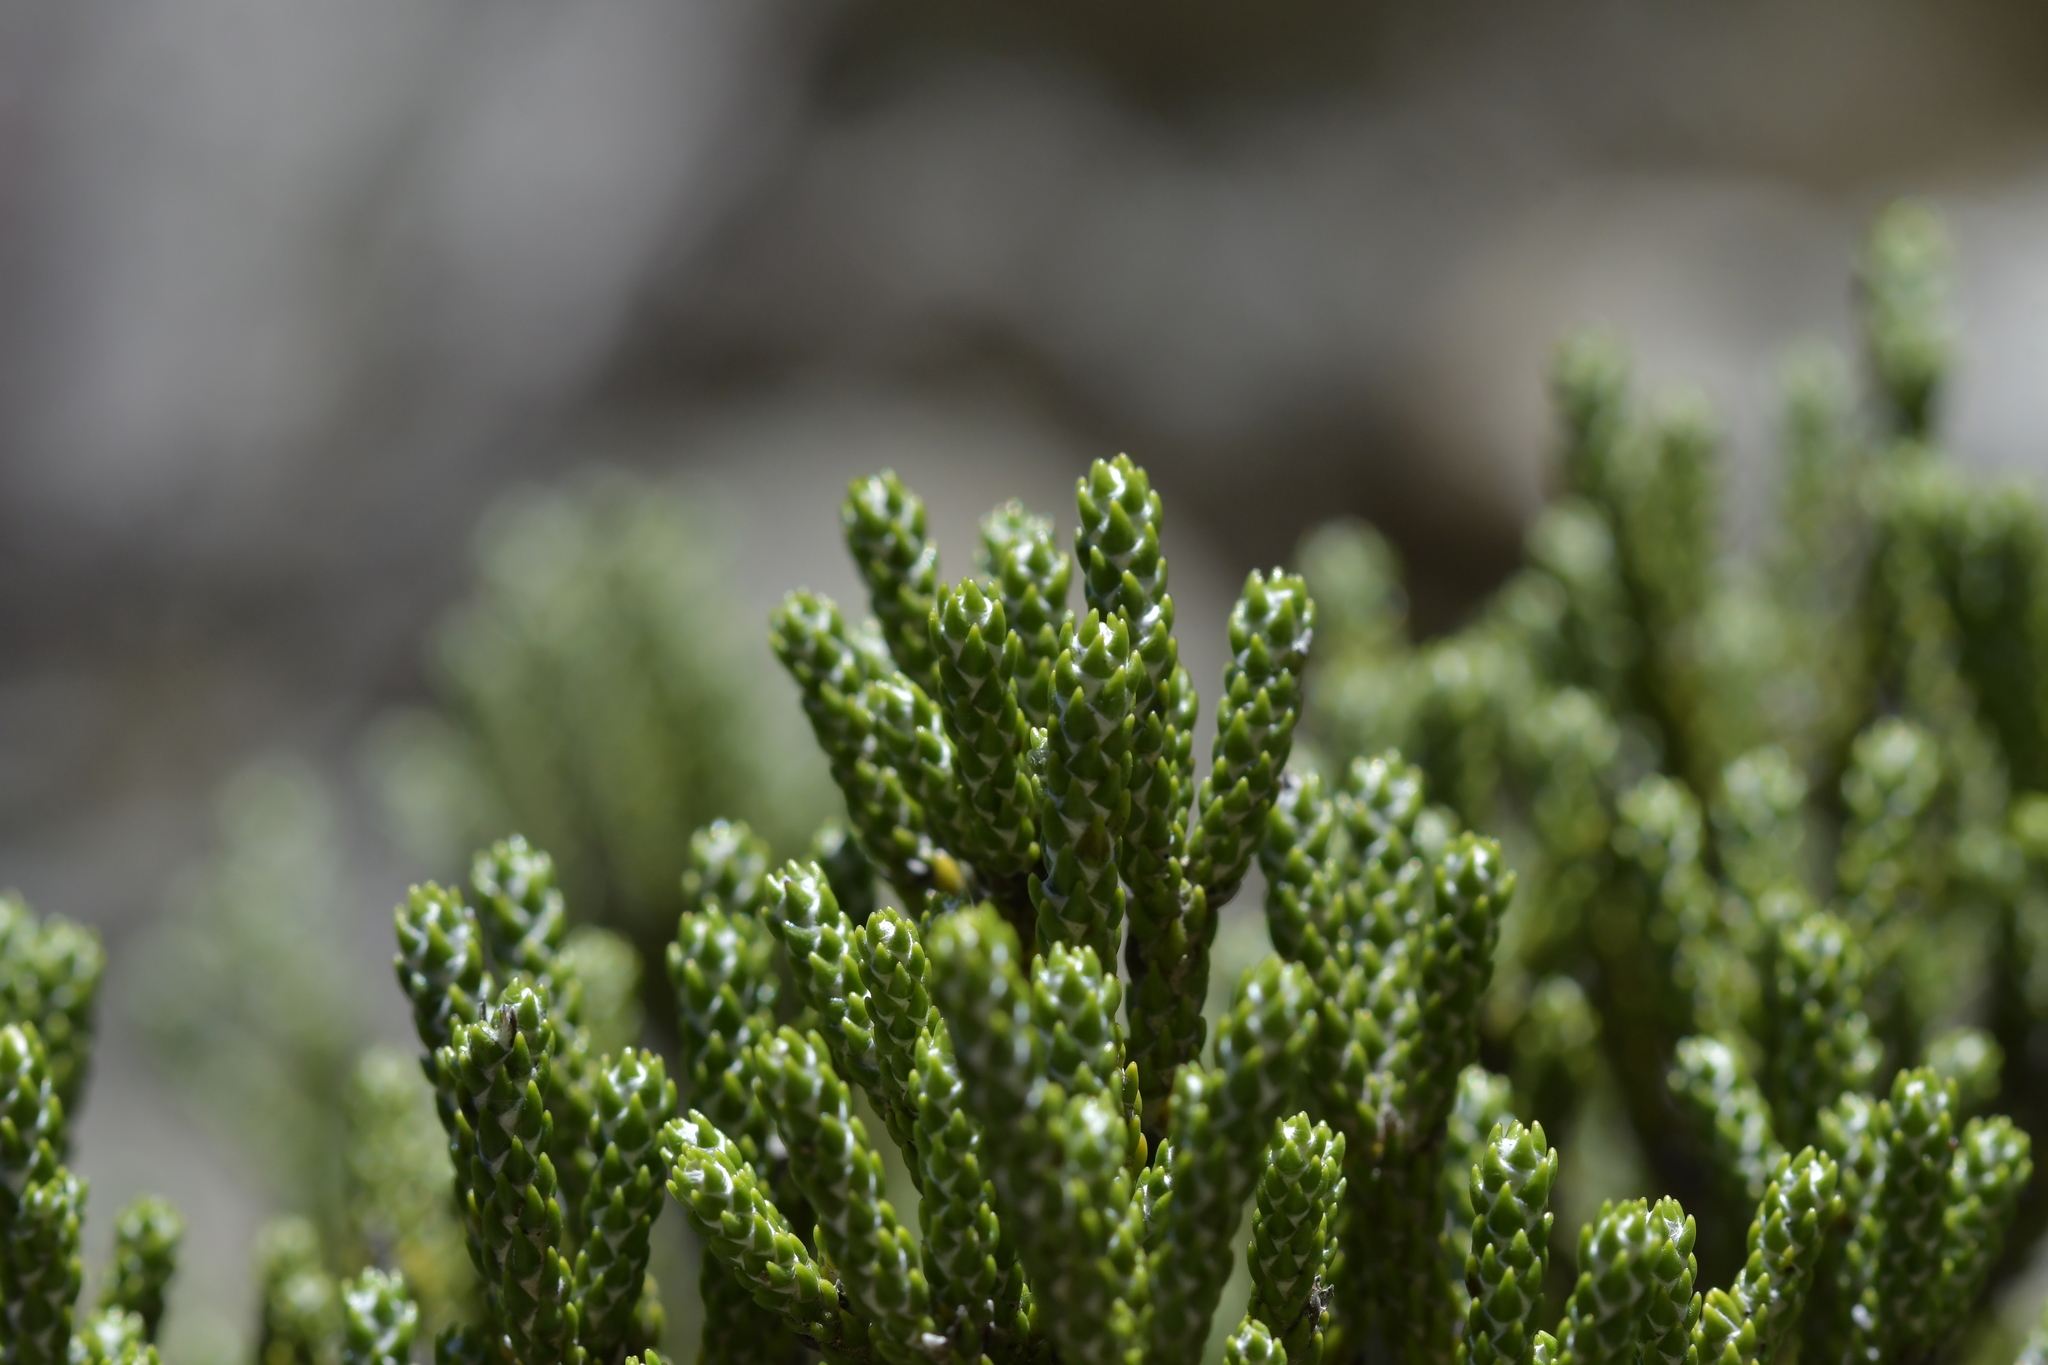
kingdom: Plantae
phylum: Tracheophyta
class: Magnoliopsida
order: Asterales
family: Asteraceae
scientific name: Asteraceae
